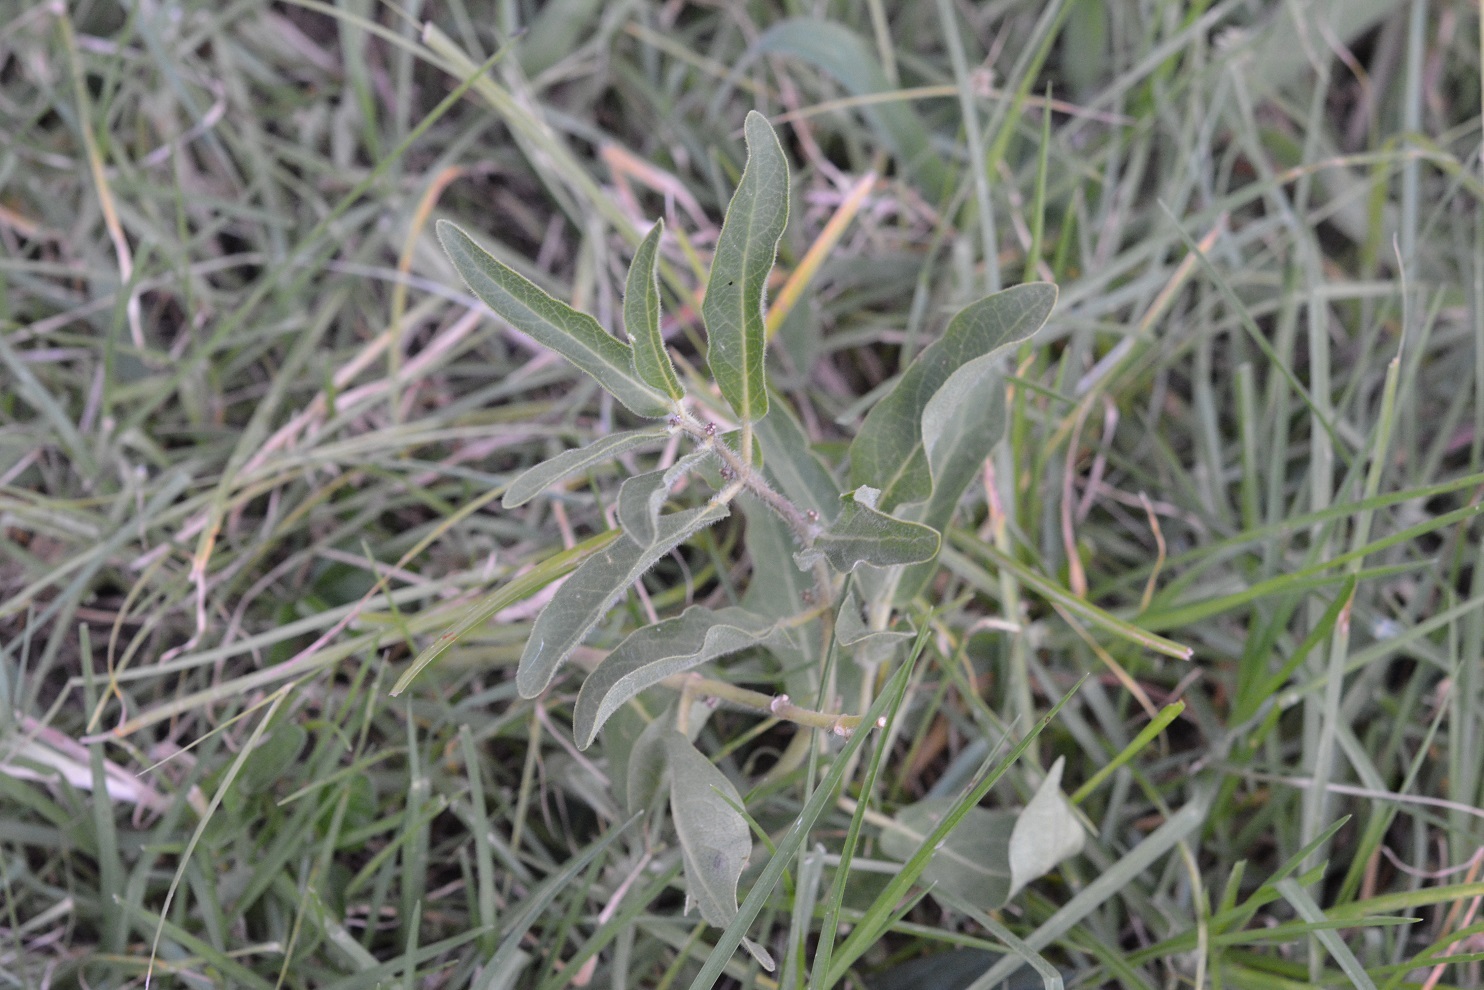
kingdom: Plantae
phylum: Tracheophyta
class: Magnoliopsida
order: Gentianales
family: Apocynaceae
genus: Pherotrichis
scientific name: Pherotrichis villosa
